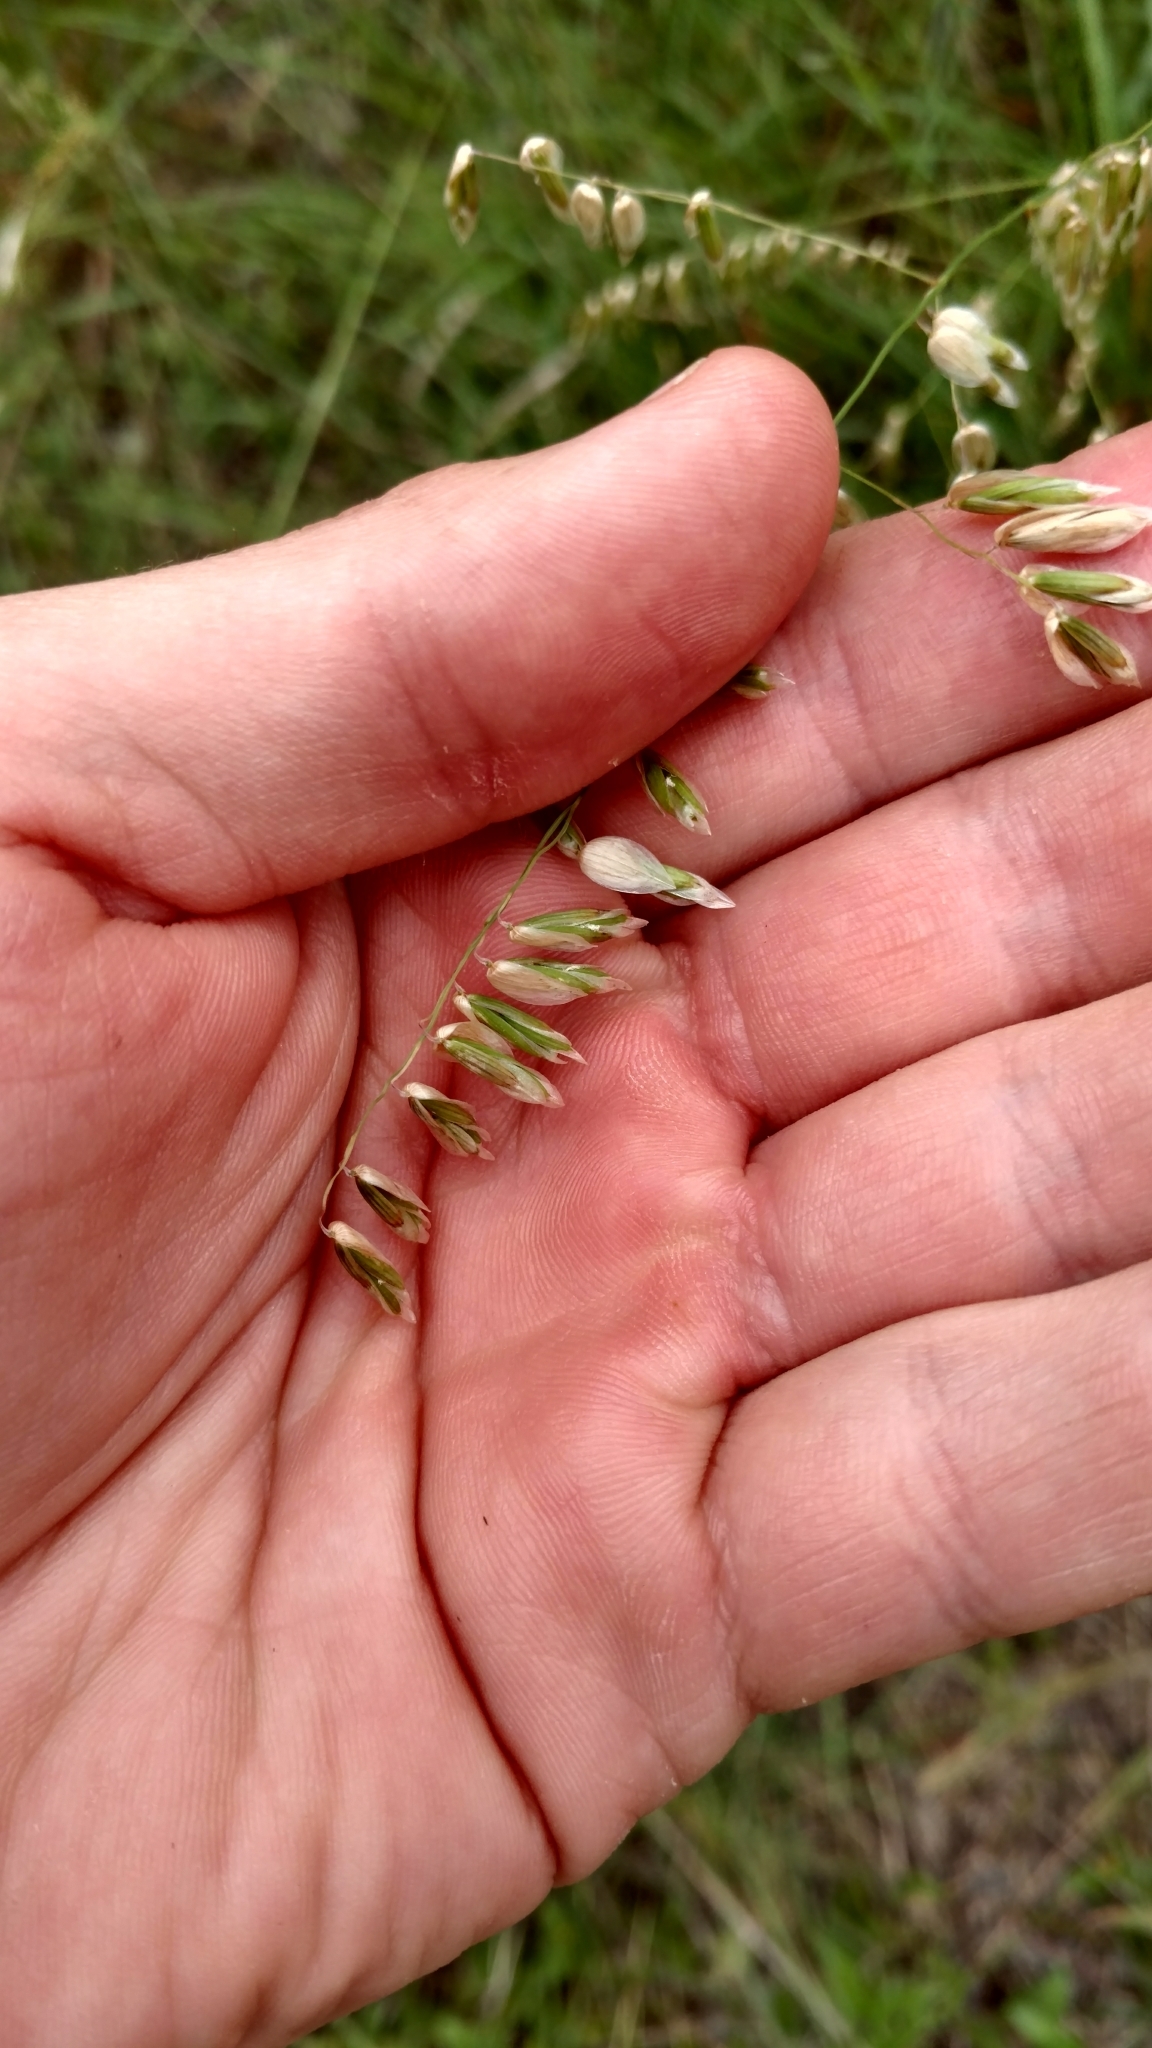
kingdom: Plantae
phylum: Tracheophyta
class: Liliopsida
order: Poales
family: Poaceae
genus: Melica
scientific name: Melica nitens
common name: Three-flower melic
